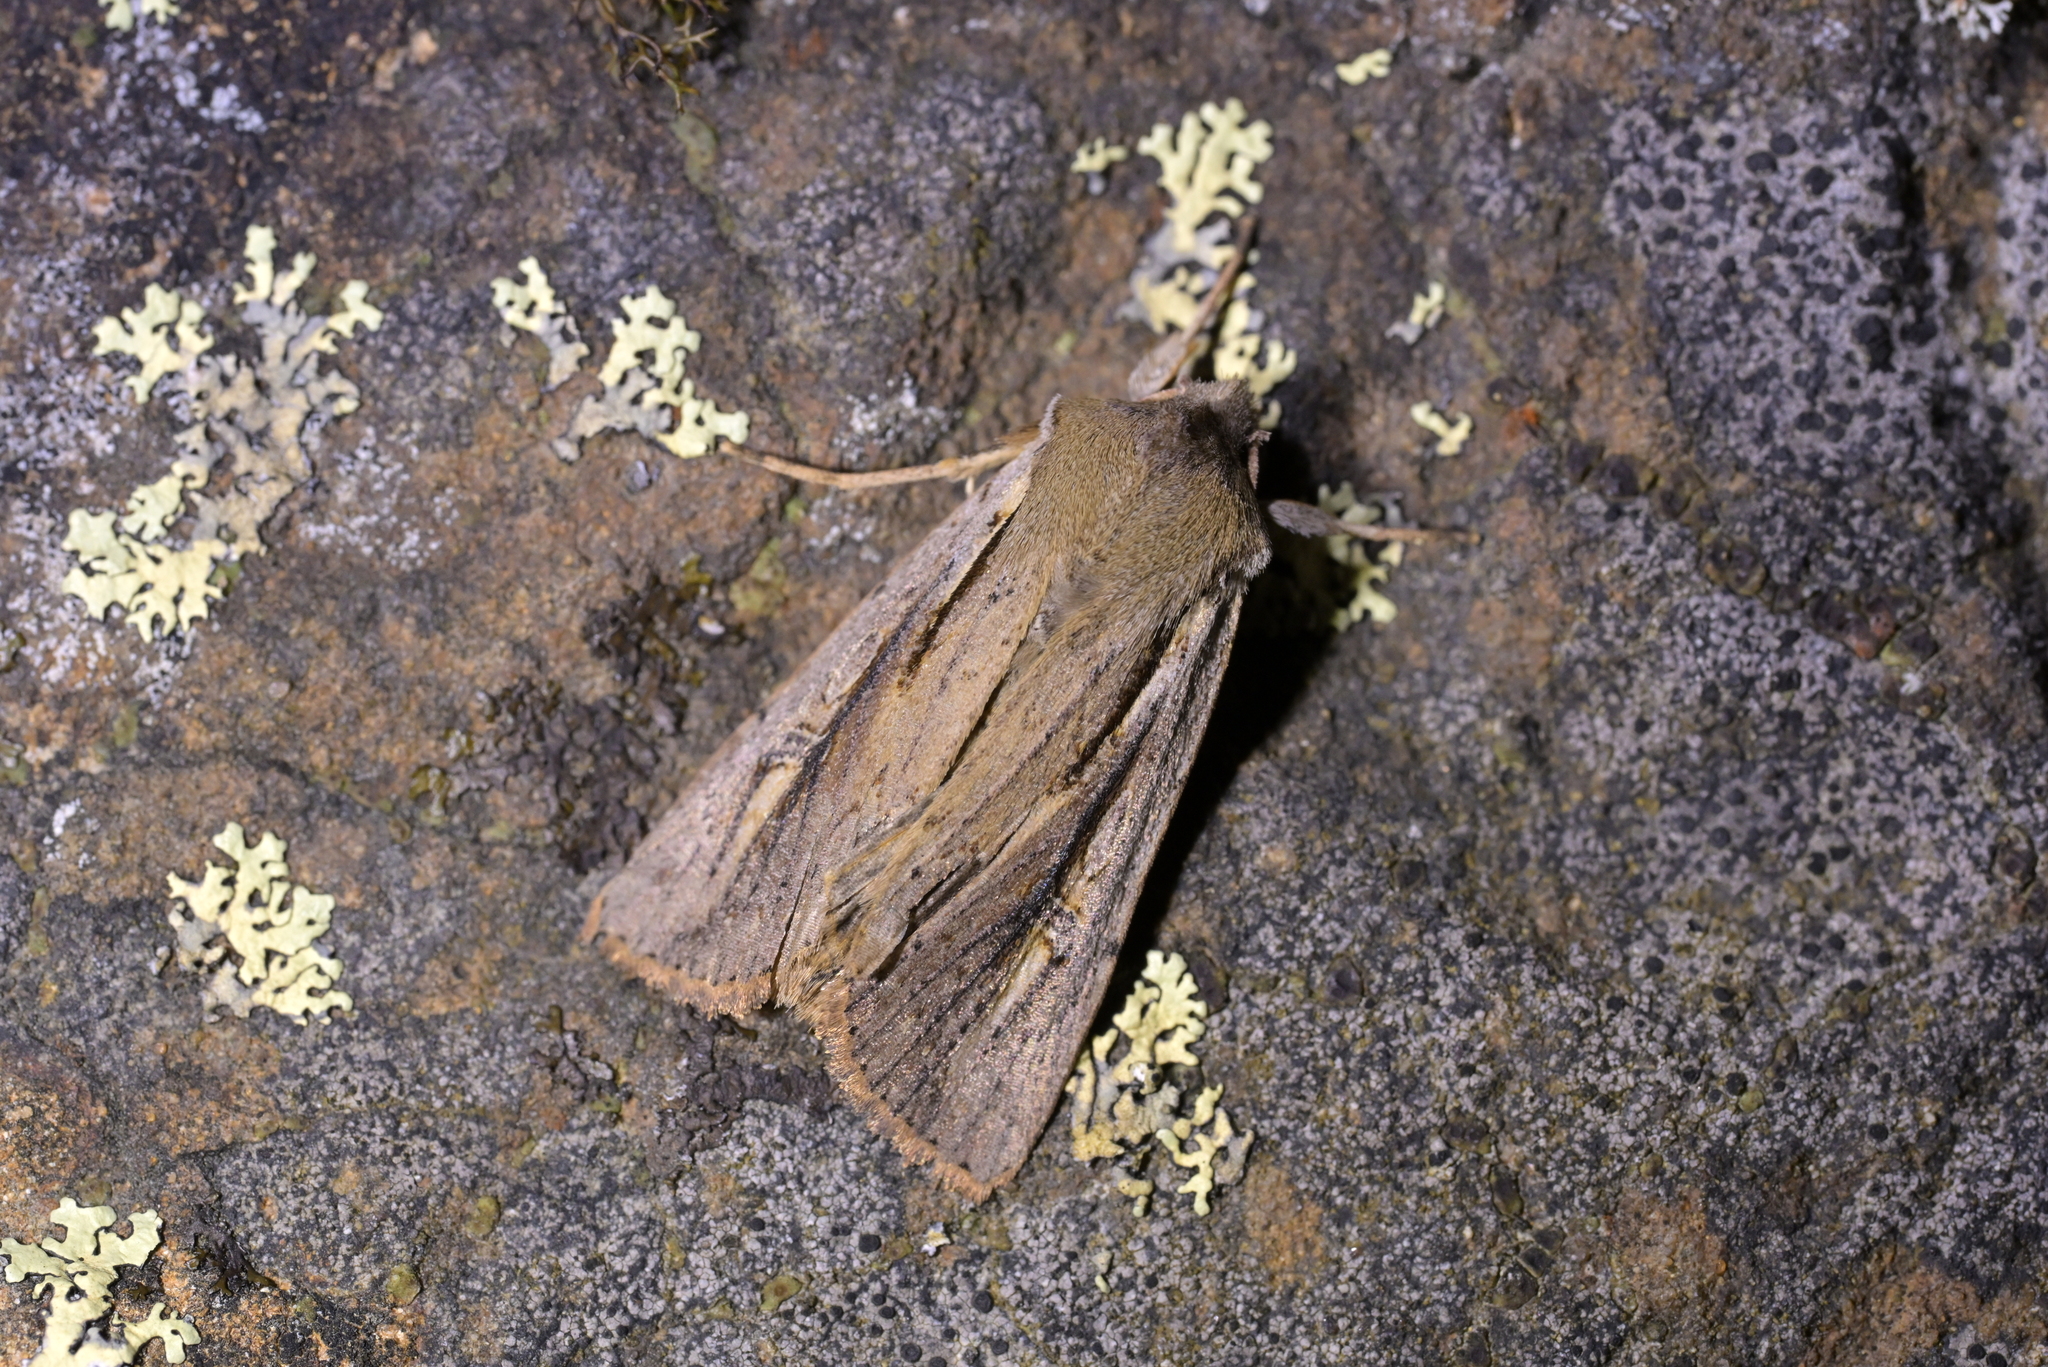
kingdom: Animalia
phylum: Arthropoda
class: Insecta
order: Lepidoptera
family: Noctuidae
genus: Ichneutica
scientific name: Ichneutica atristriga
